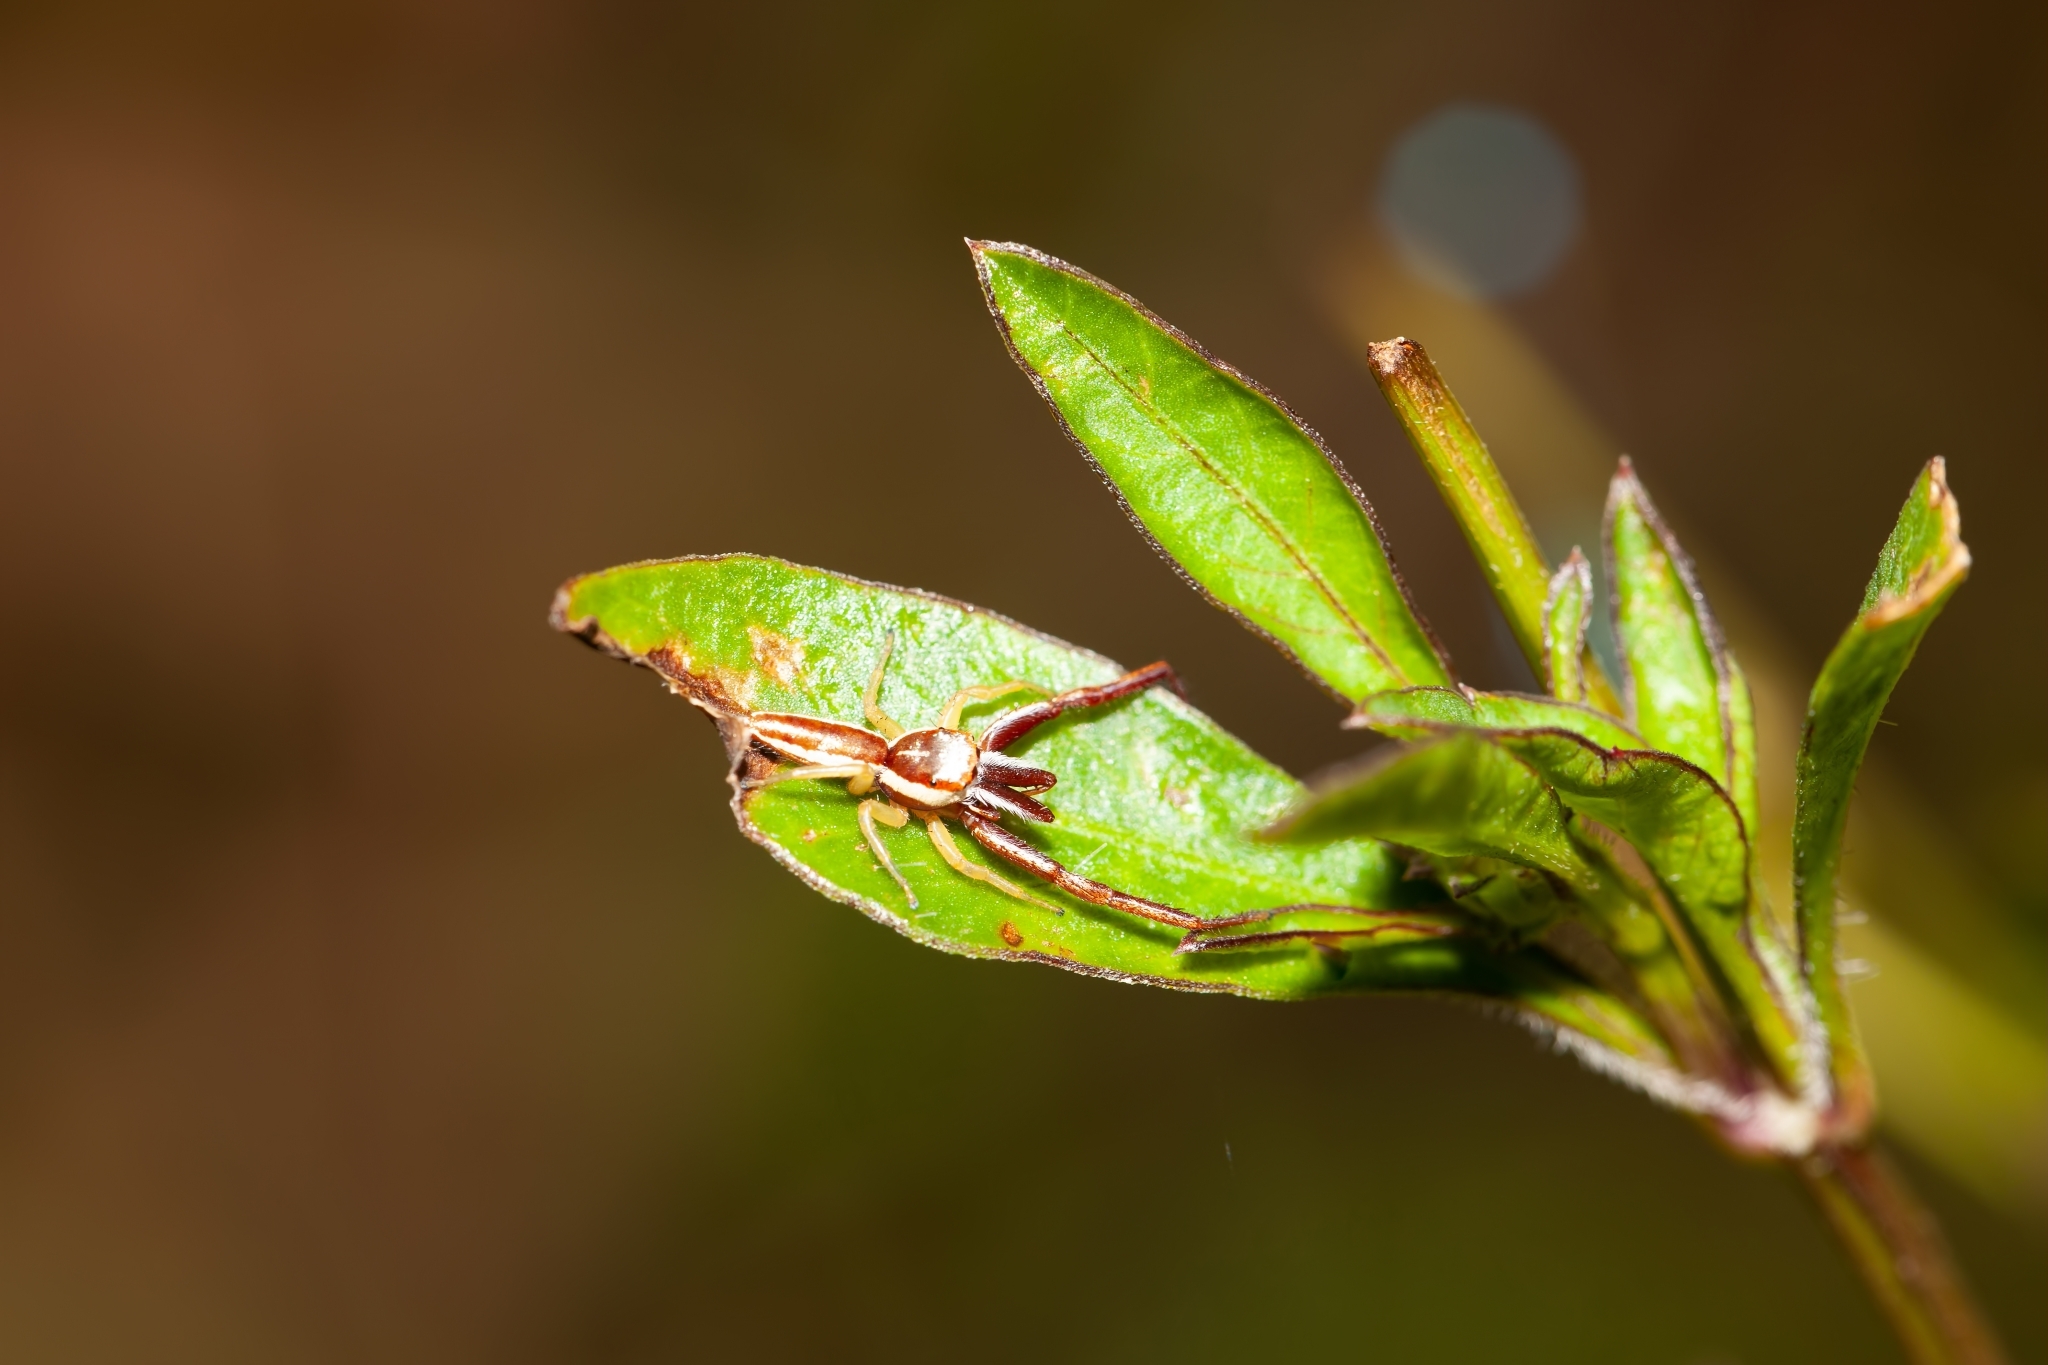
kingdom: Animalia
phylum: Arthropoda
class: Arachnida
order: Araneae
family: Salticidae
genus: Hentzia
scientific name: Hentzia palmarum
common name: Common hentz jumping spider
